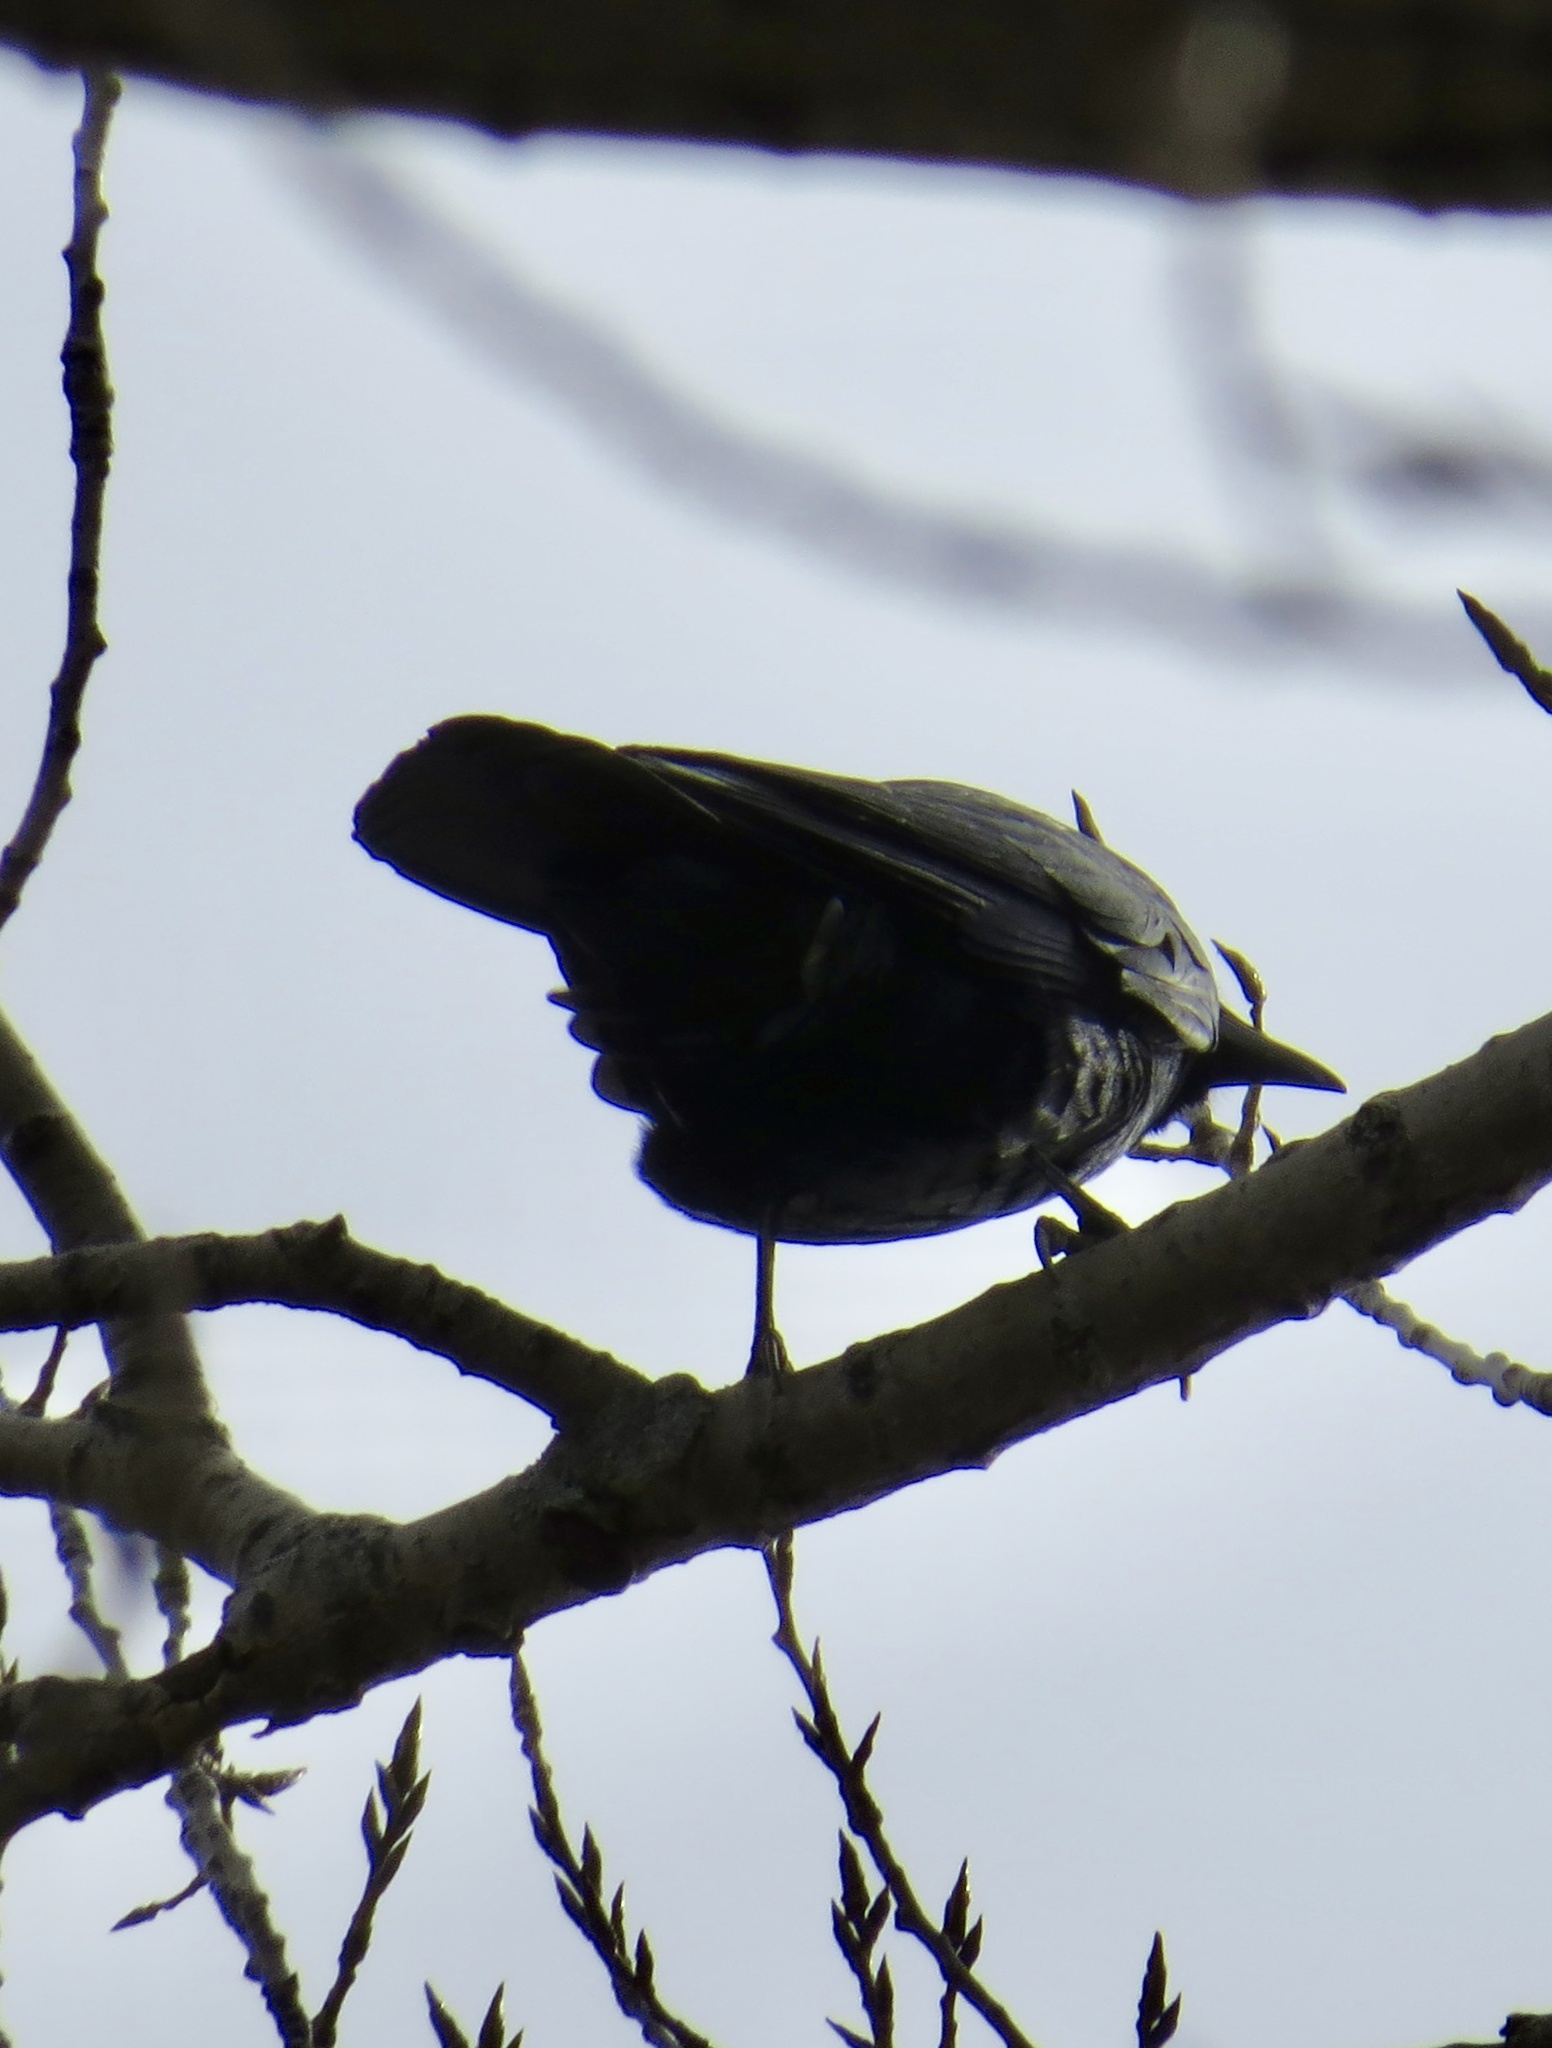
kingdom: Animalia
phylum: Chordata
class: Aves
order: Passeriformes
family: Corvidae
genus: Corvus
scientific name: Corvus ossifragus
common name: Fish crow
